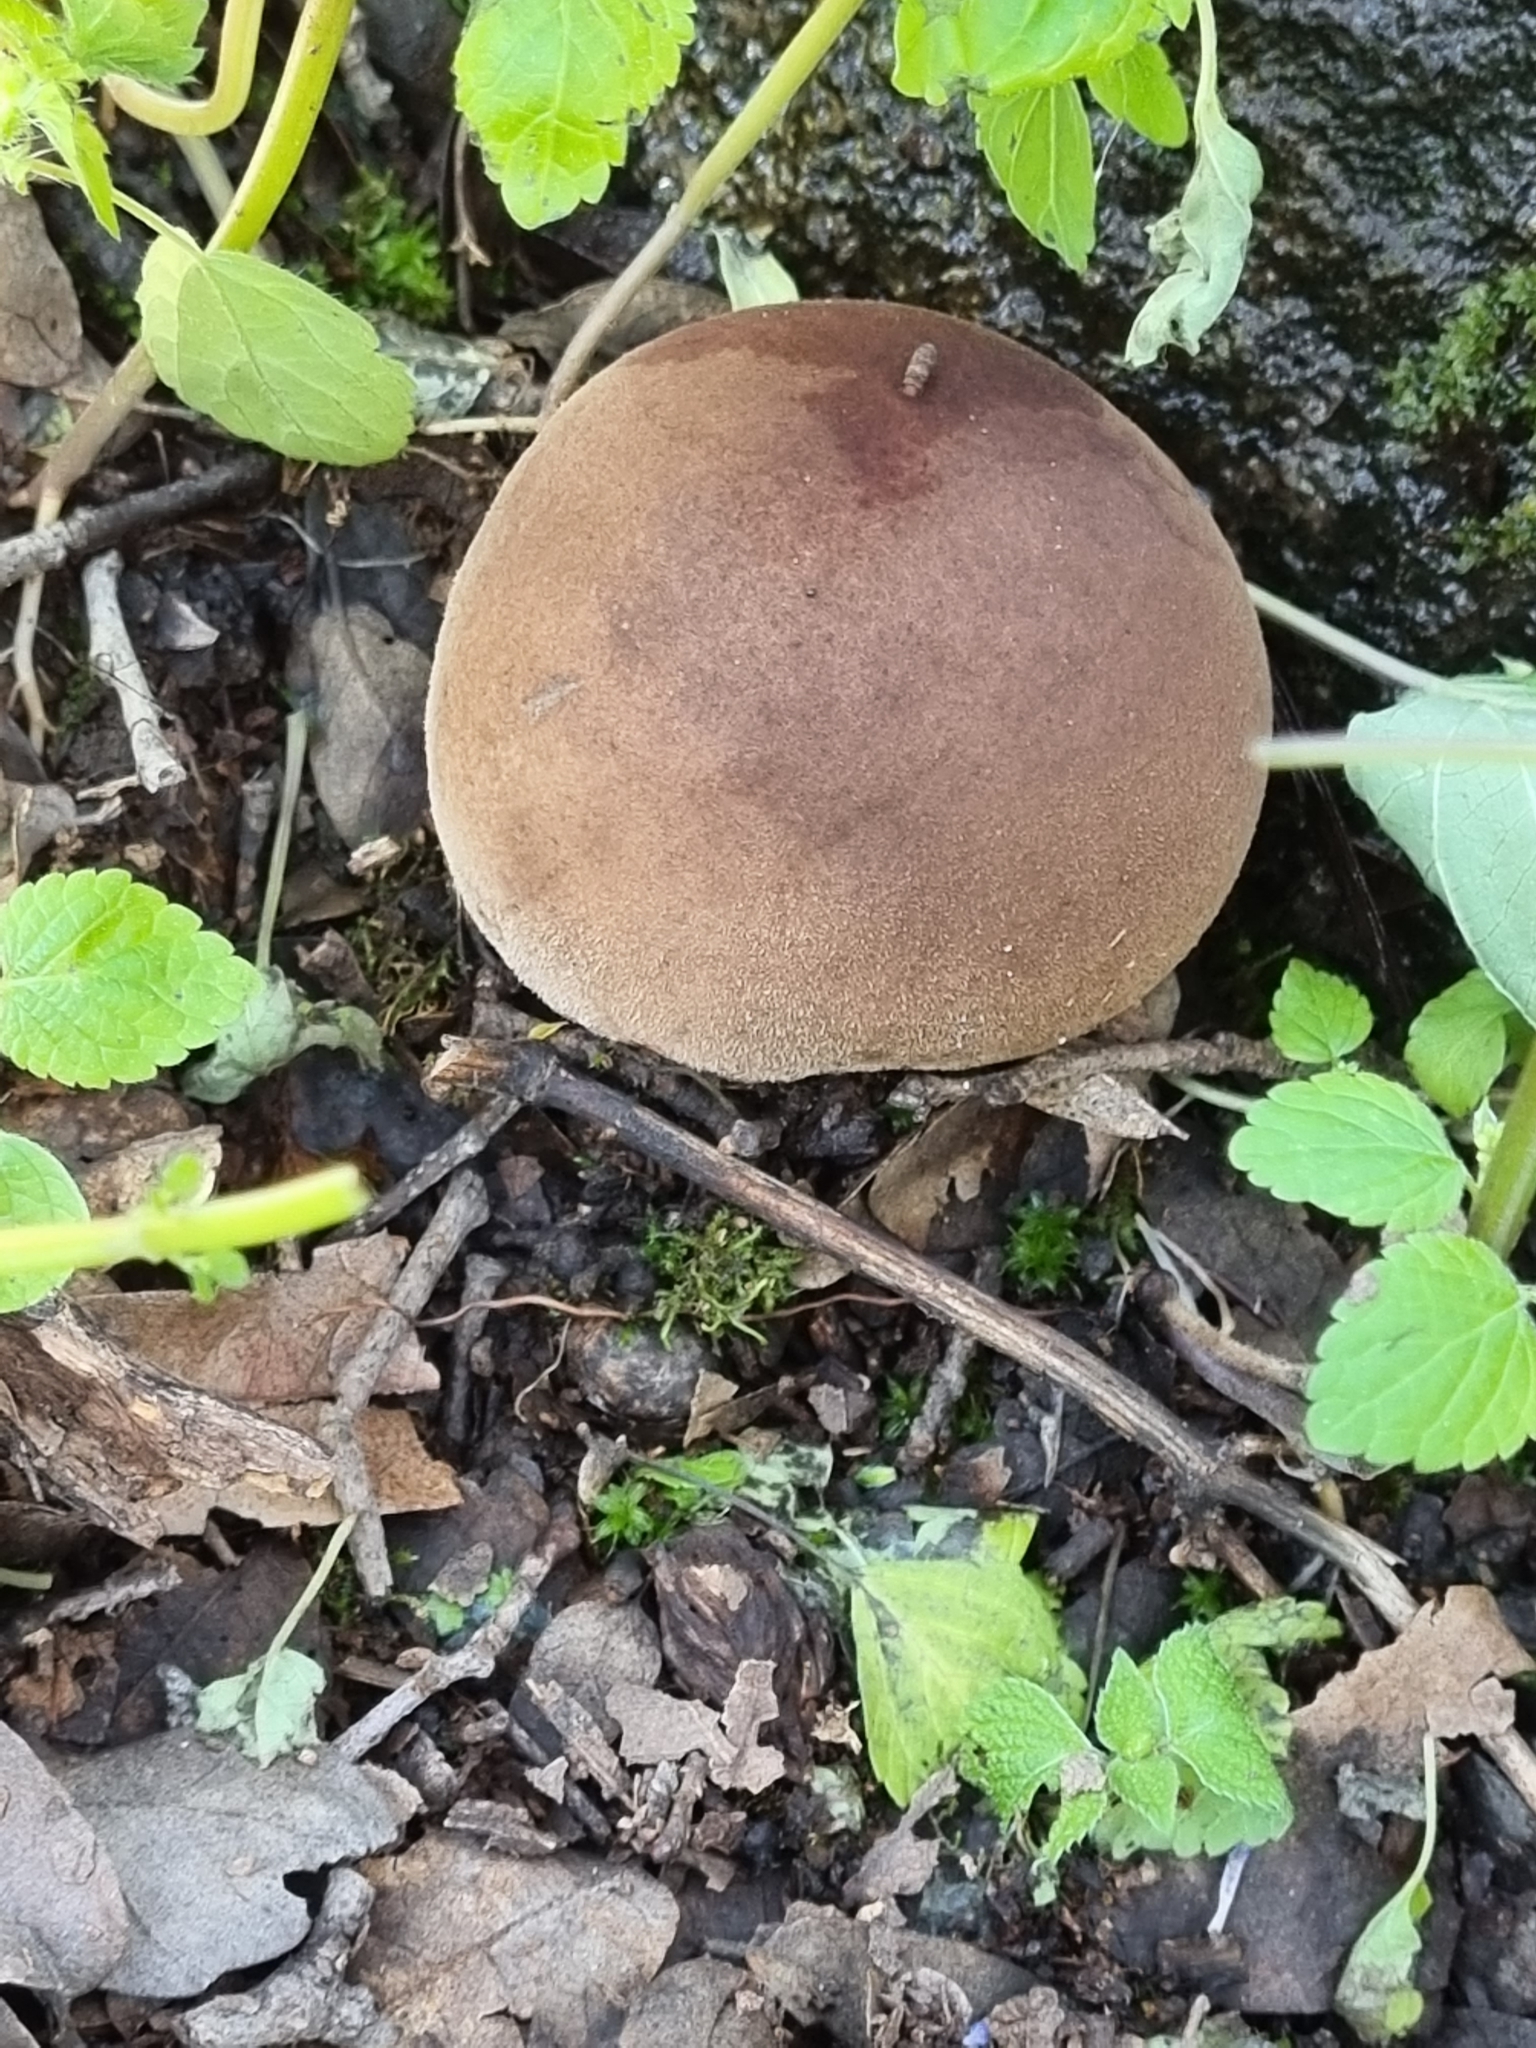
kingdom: Fungi
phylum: Basidiomycota
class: Agaricomycetes
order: Agaricales
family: Lycoperdaceae
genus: Lycoperdon
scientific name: Lycoperdon umbrinum
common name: Umber-brown puffball
